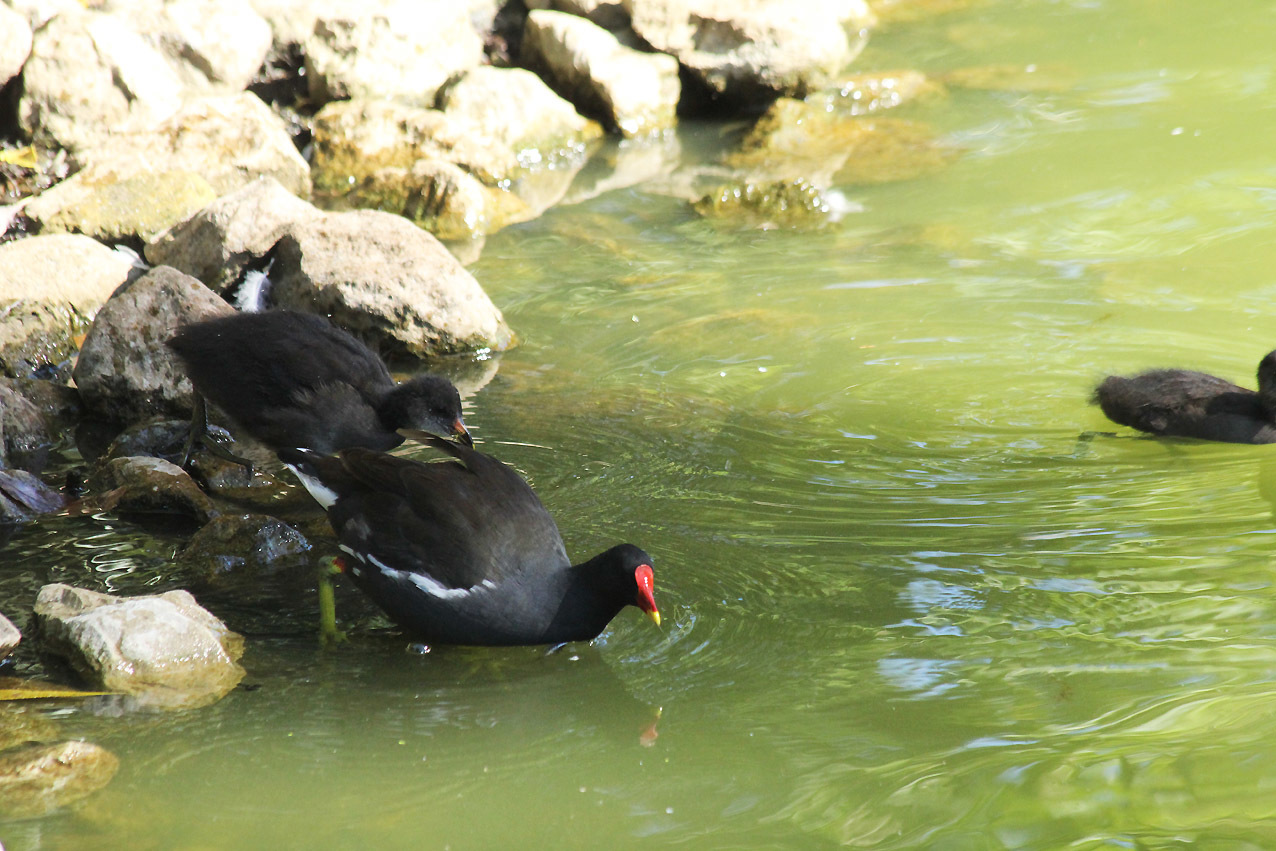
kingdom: Animalia
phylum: Chordata
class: Aves
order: Gruiformes
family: Rallidae
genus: Gallinula
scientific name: Gallinula chloropus
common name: Common moorhen
